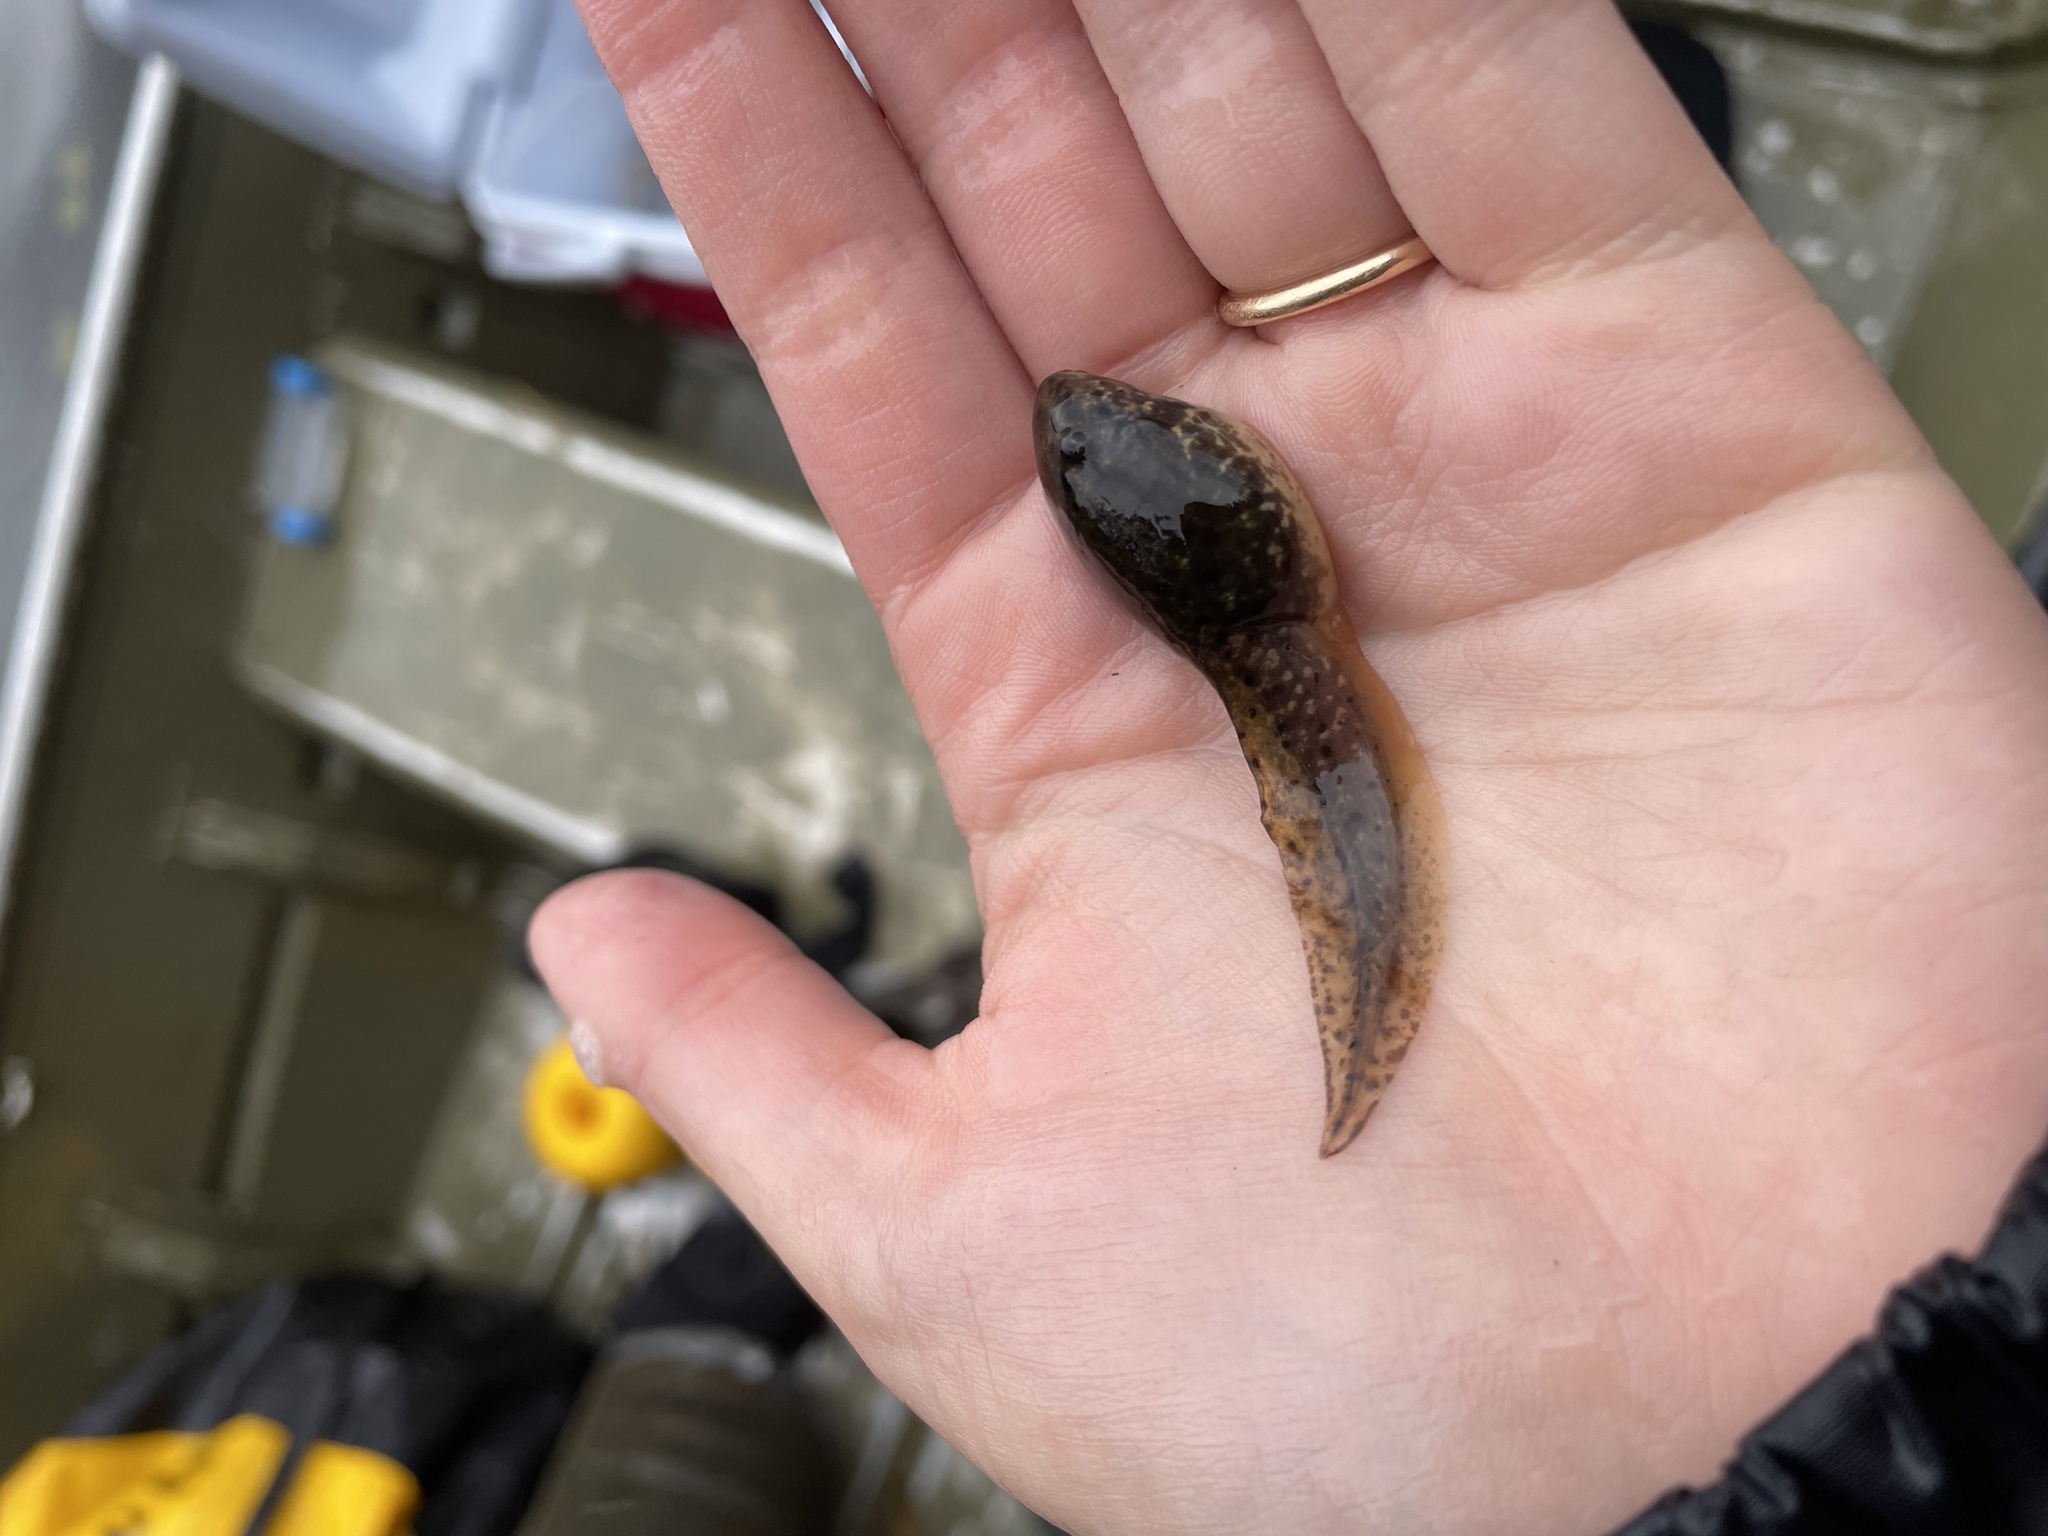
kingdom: Animalia
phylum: Chordata
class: Amphibia
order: Anura
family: Ranidae
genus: Lithobates
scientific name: Lithobates catesbeianus
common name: American bullfrog
